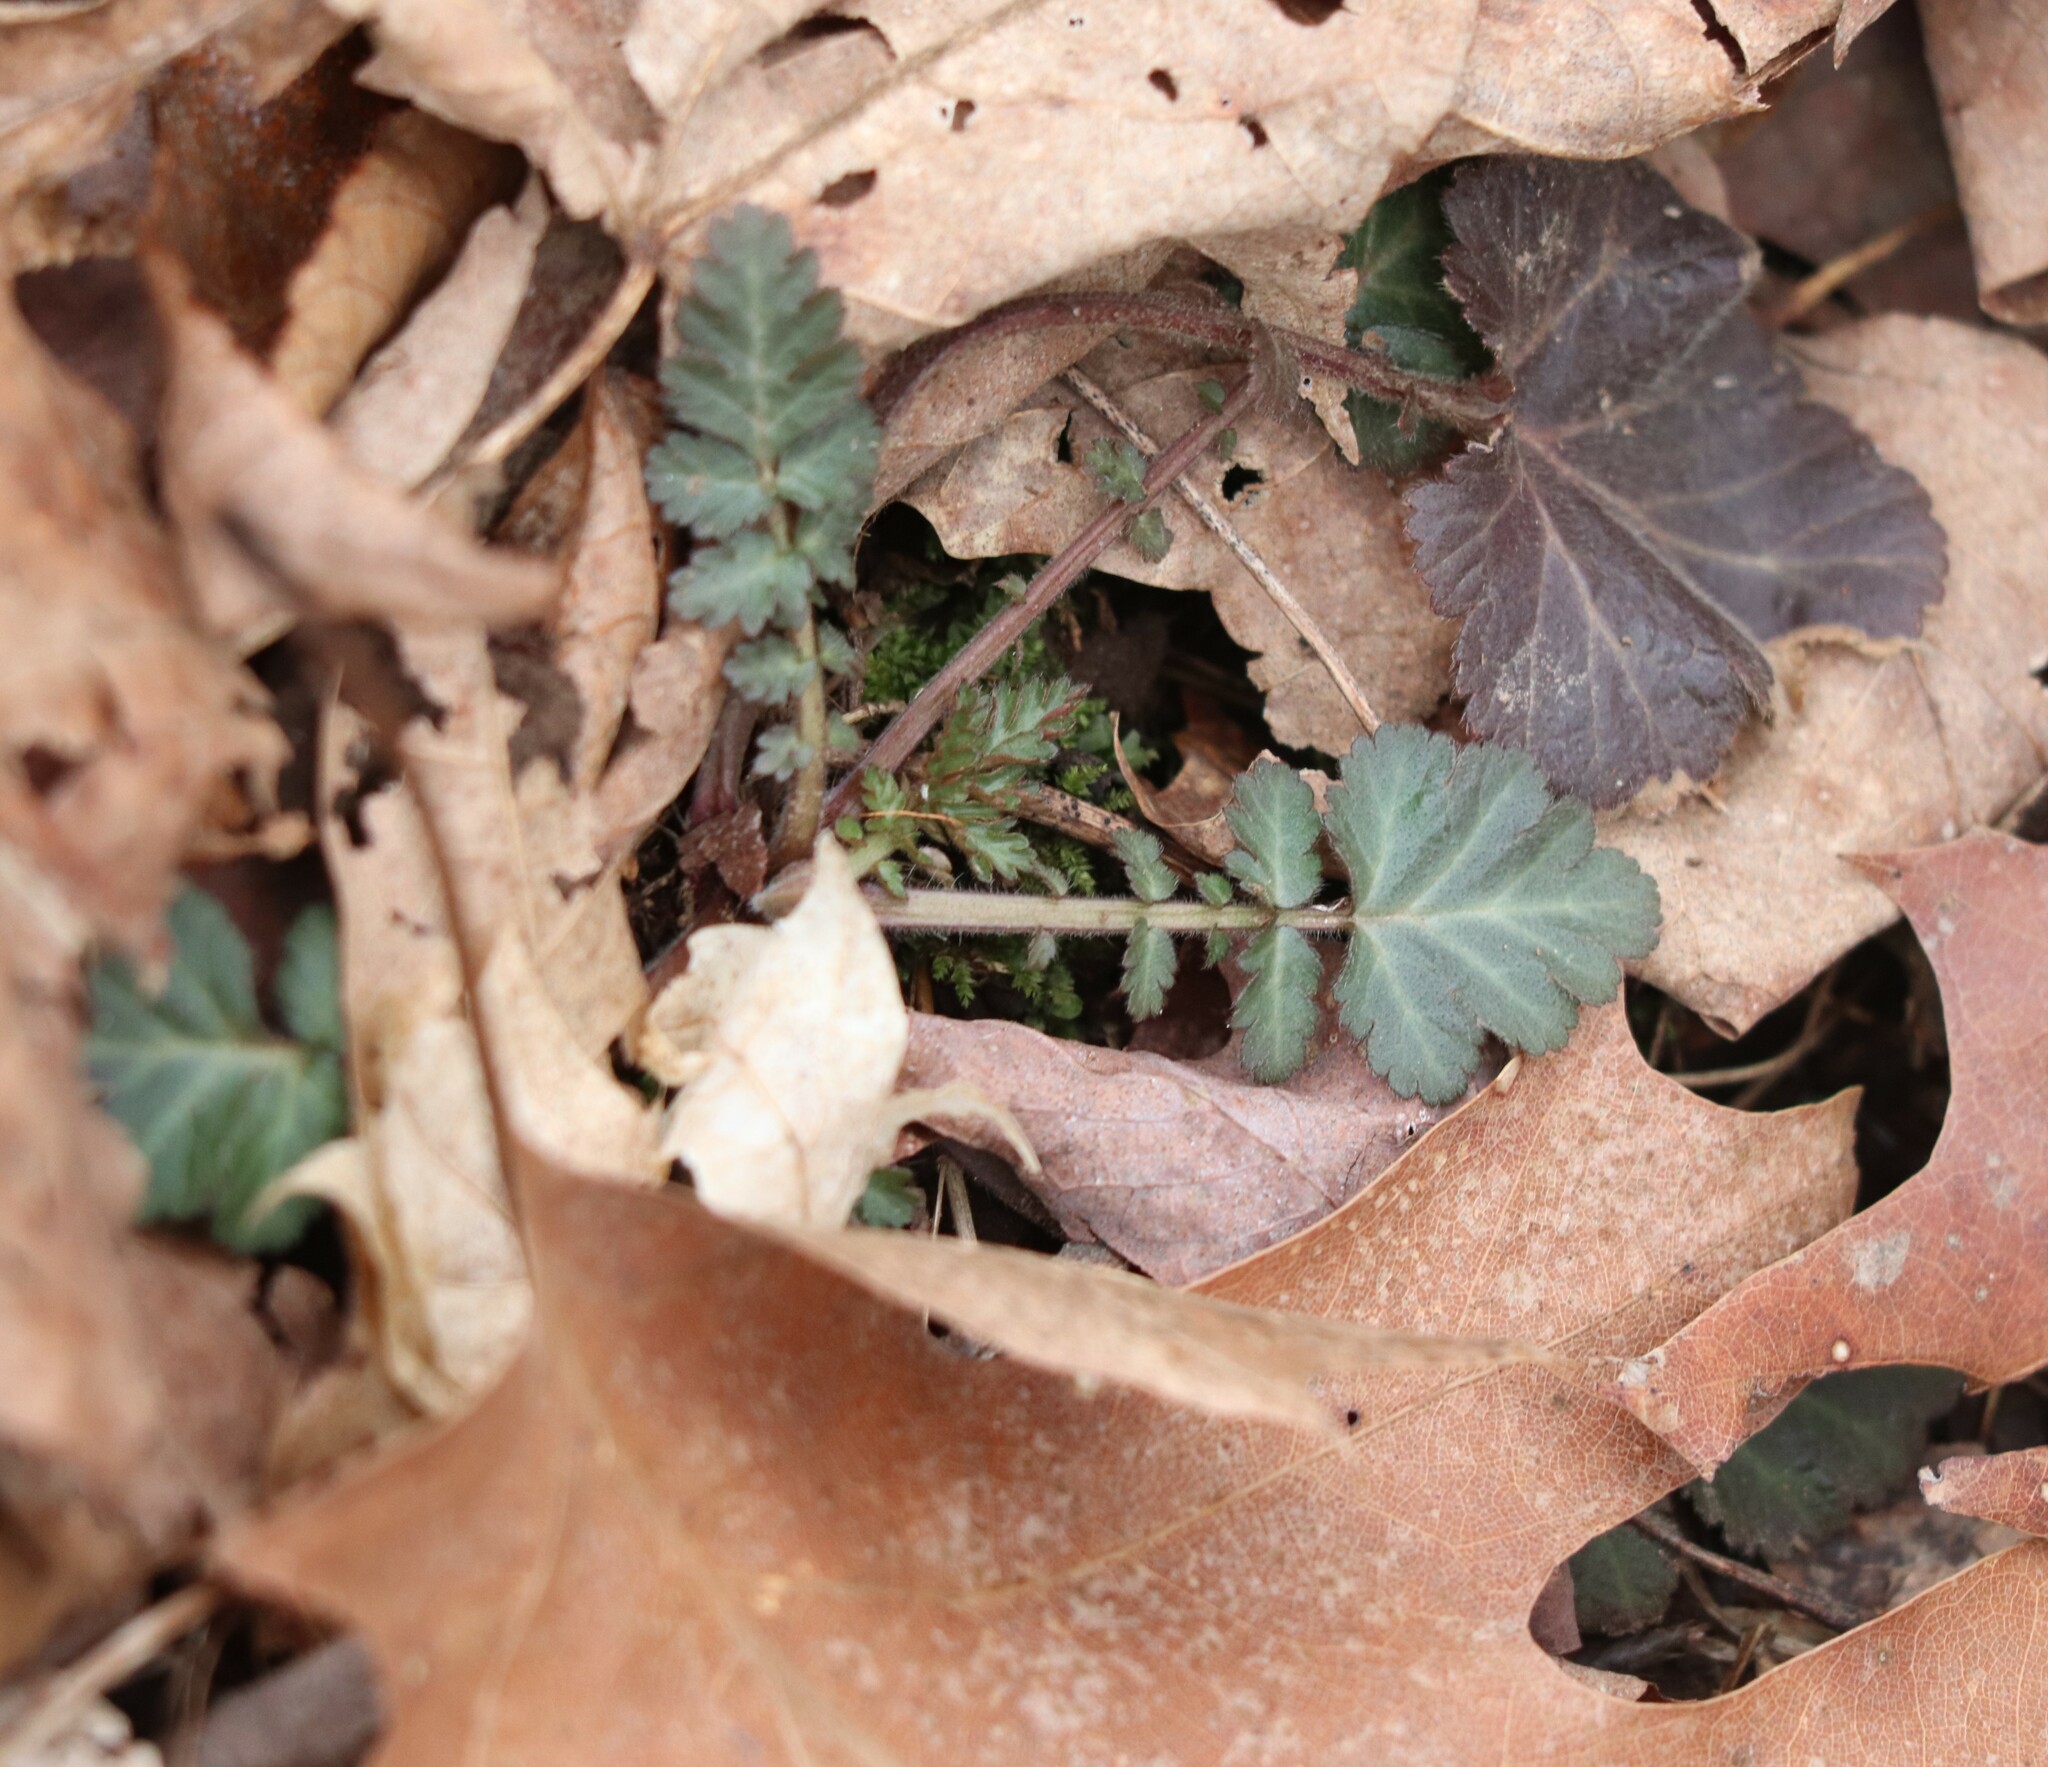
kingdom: Plantae
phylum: Tracheophyta
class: Magnoliopsida
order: Rosales
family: Rosaceae
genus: Geum
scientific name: Geum canadense
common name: White avens
